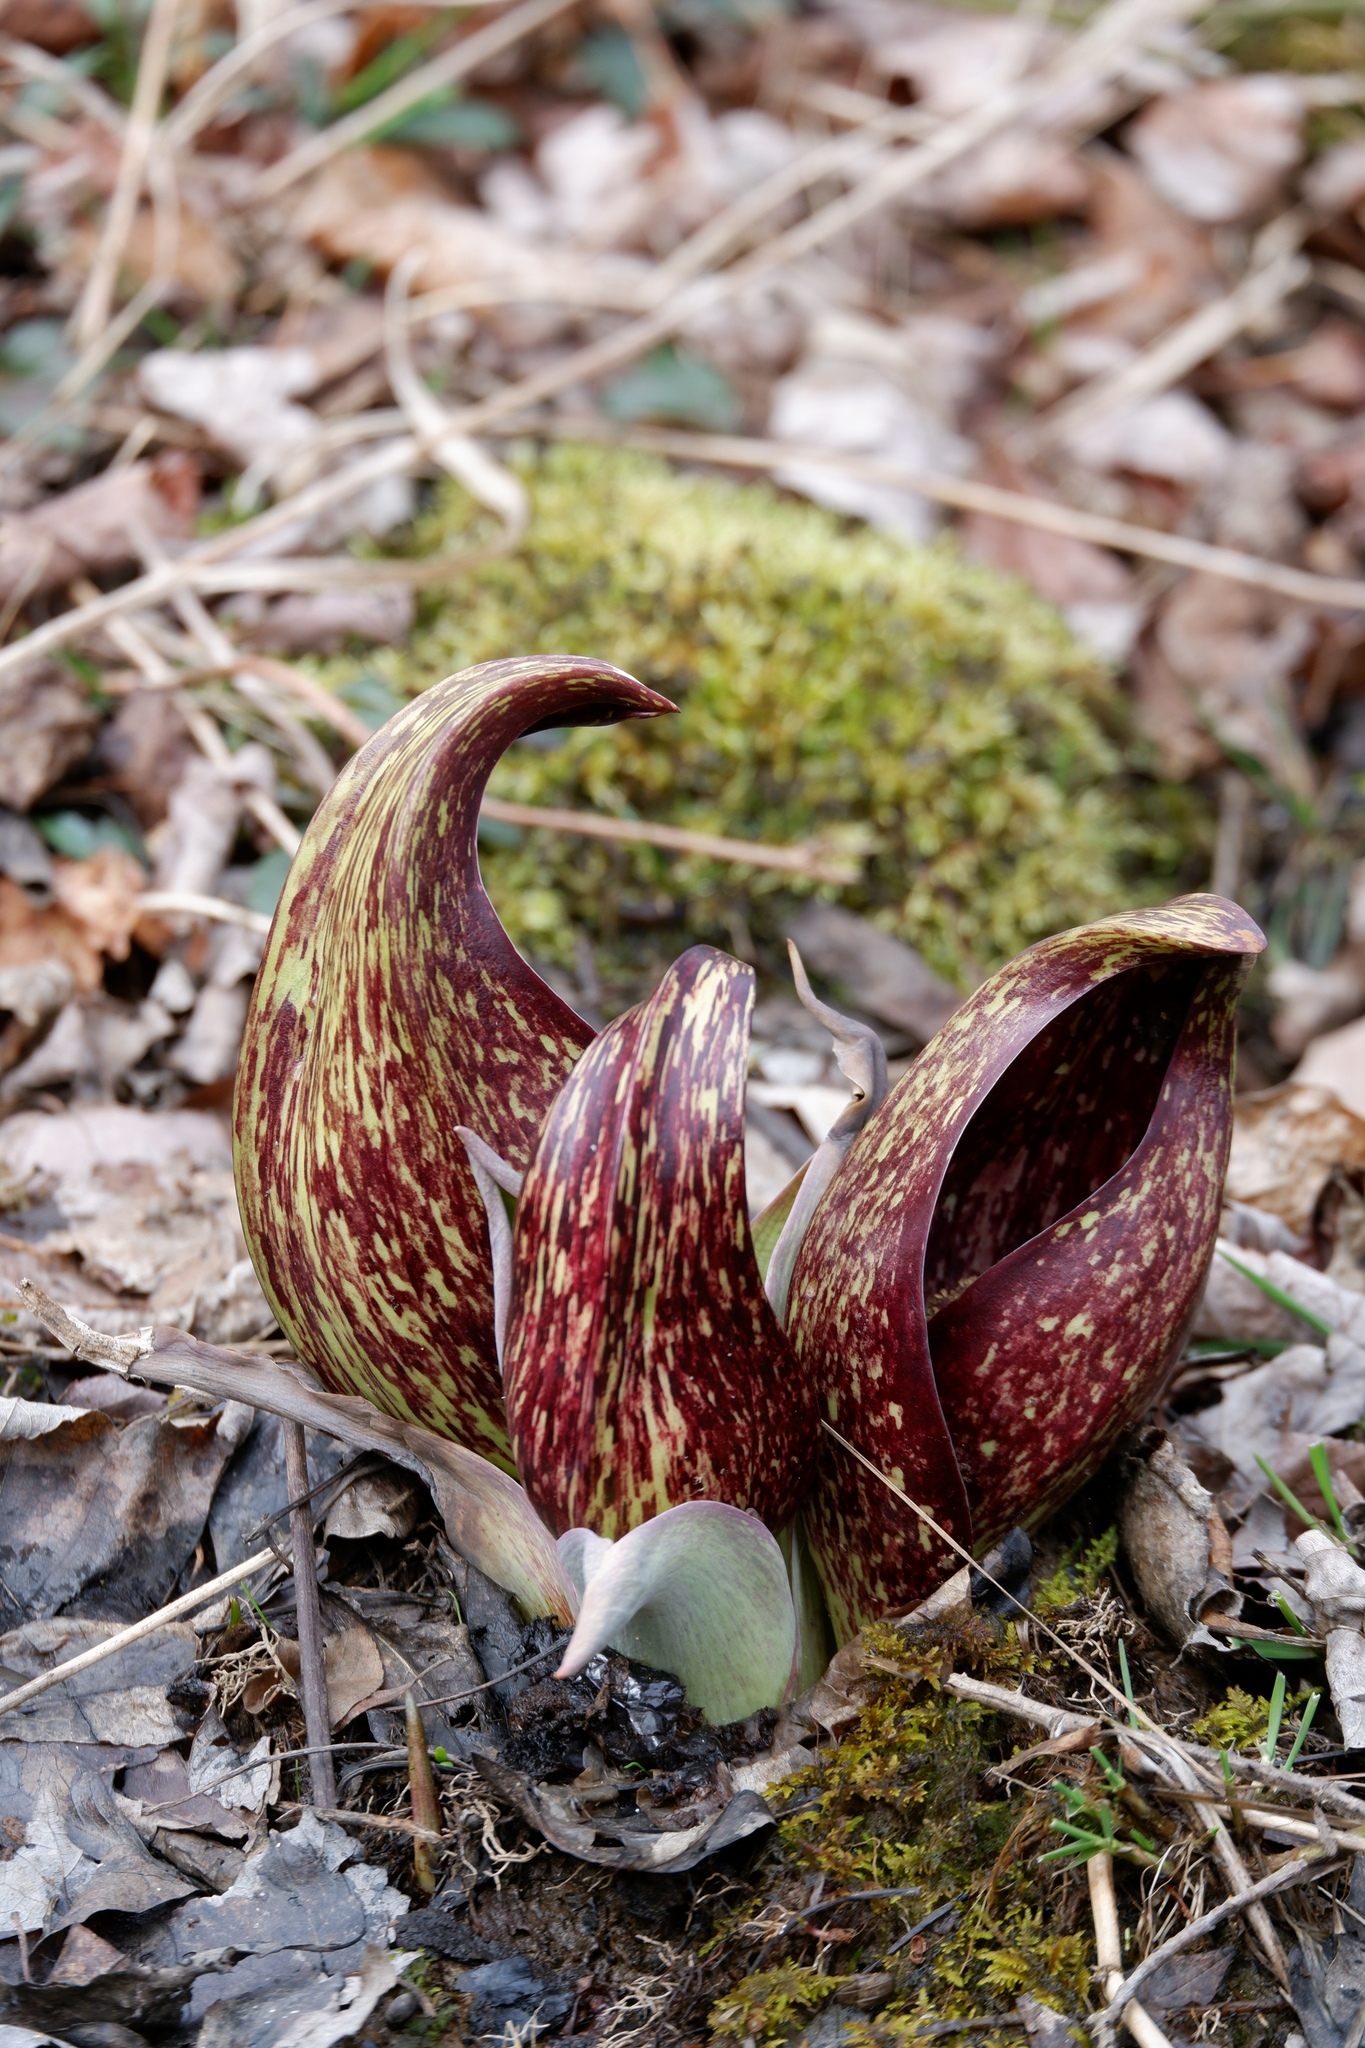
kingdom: Plantae
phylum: Tracheophyta
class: Liliopsida
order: Alismatales
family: Araceae
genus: Symplocarpus
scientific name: Symplocarpus foetidus
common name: Eastern skunk cabbage
